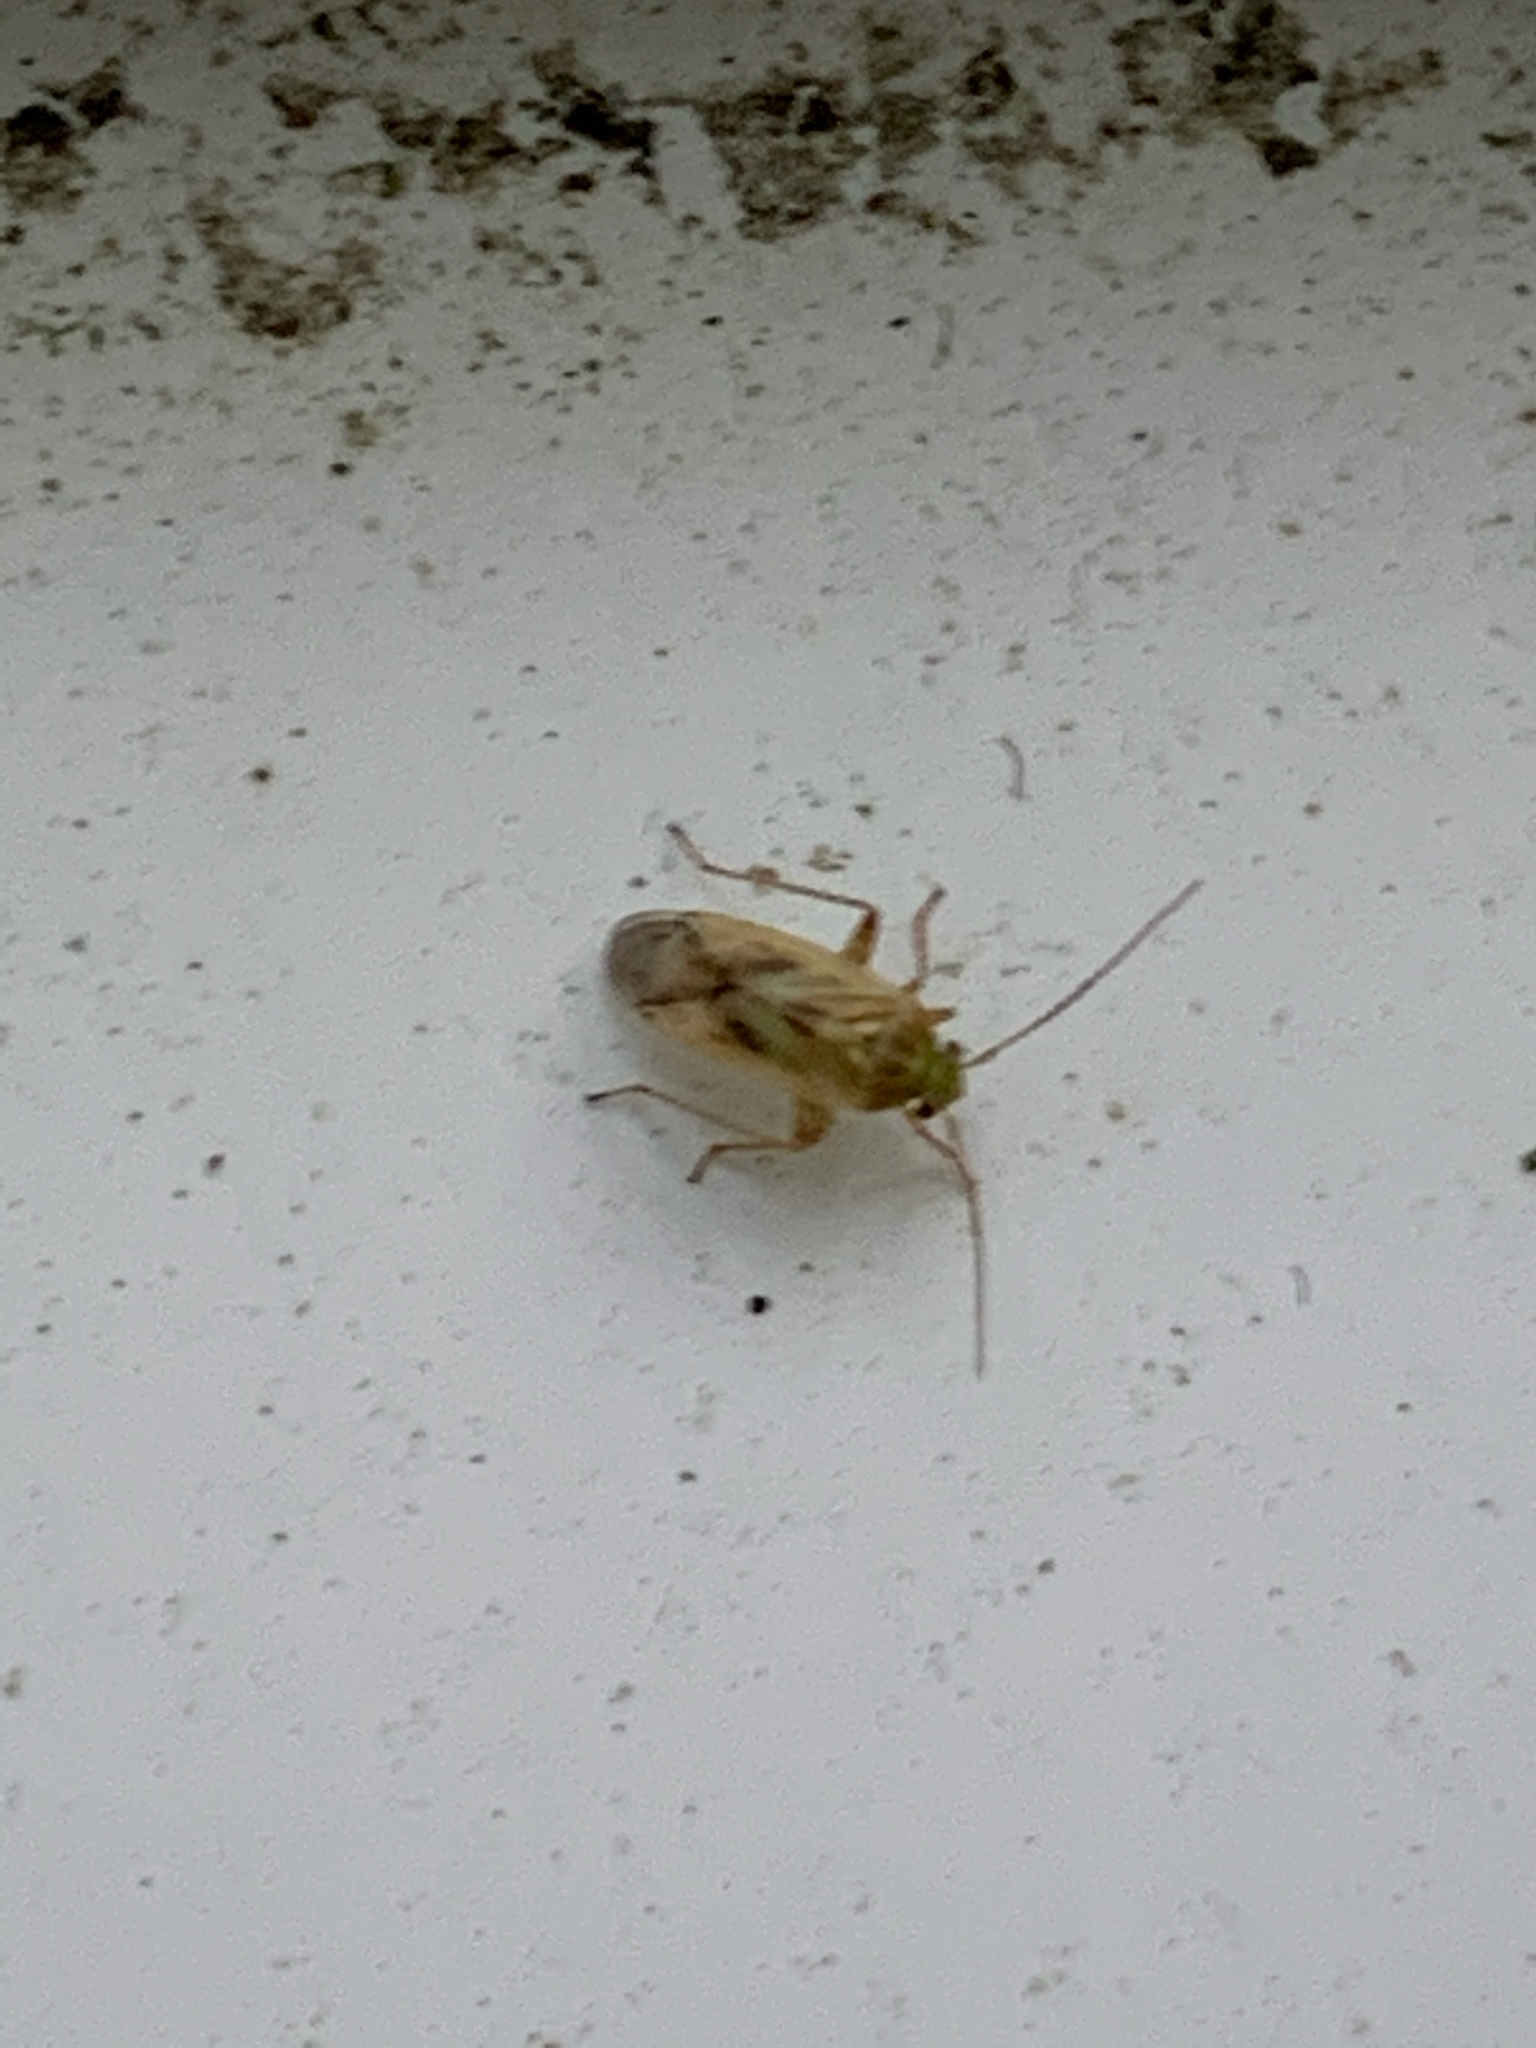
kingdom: Animalia
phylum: Arthropoda
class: Insecta
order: Hemiptera
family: Miridae
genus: Taylorilygus
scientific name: Taylorilygus apicalis
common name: Plant bug
